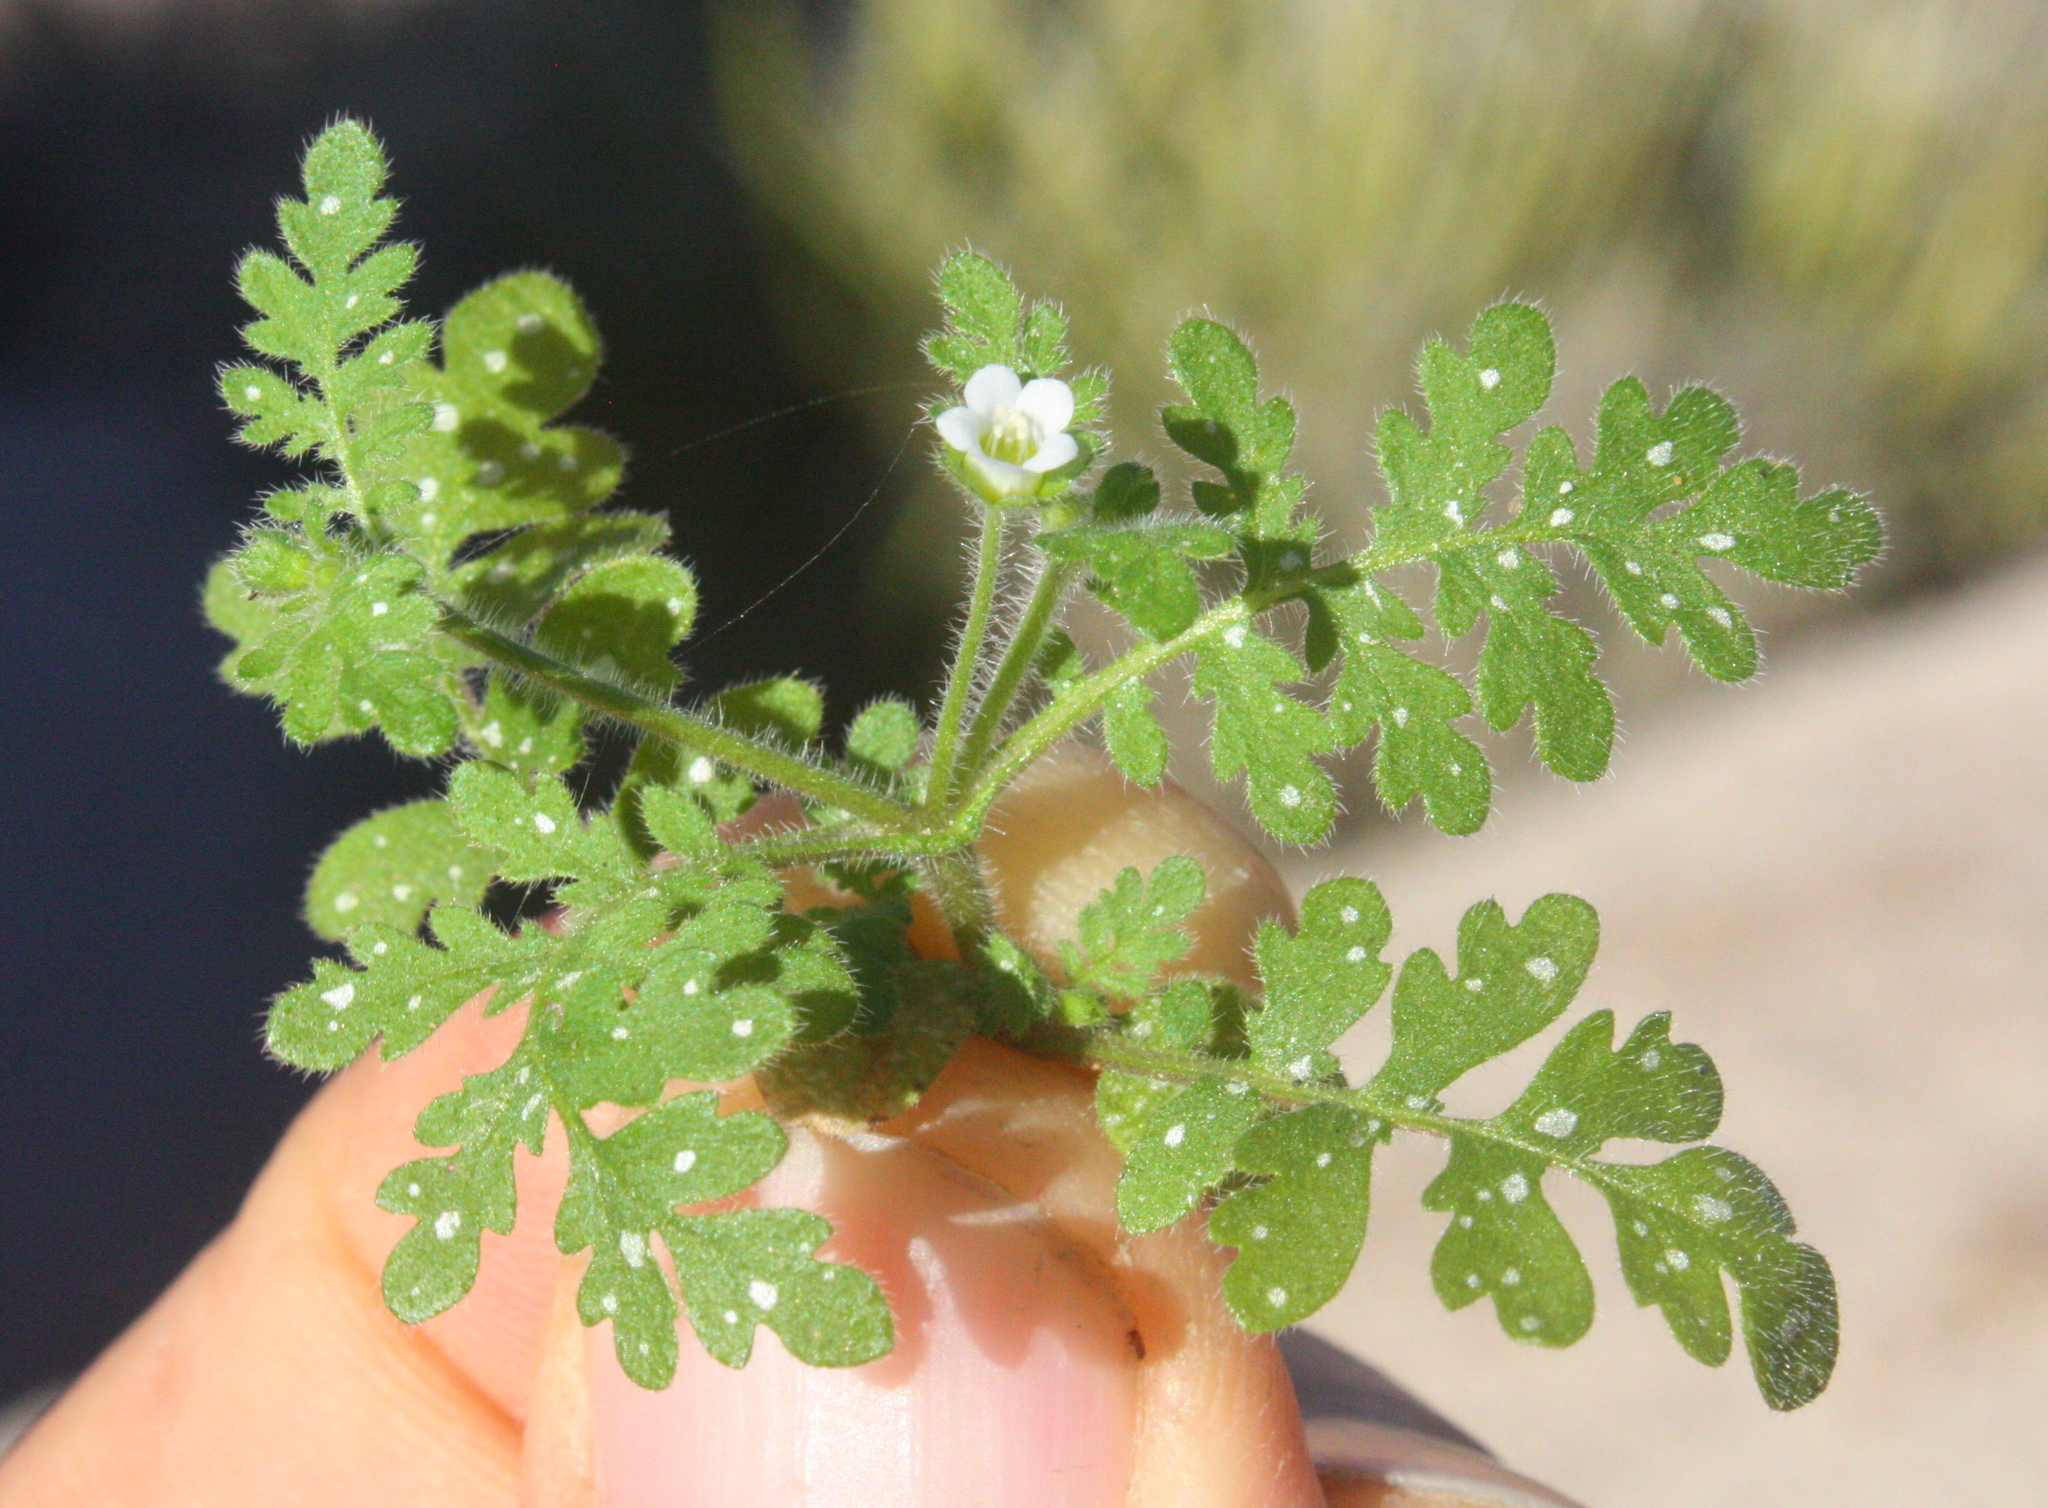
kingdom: Plantae
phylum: Tracheophyta
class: Magnoliopsida
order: Boraginales
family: Hydrophyllaceae
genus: Eucrypta
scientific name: Eucrypta chrysanthemifolia
